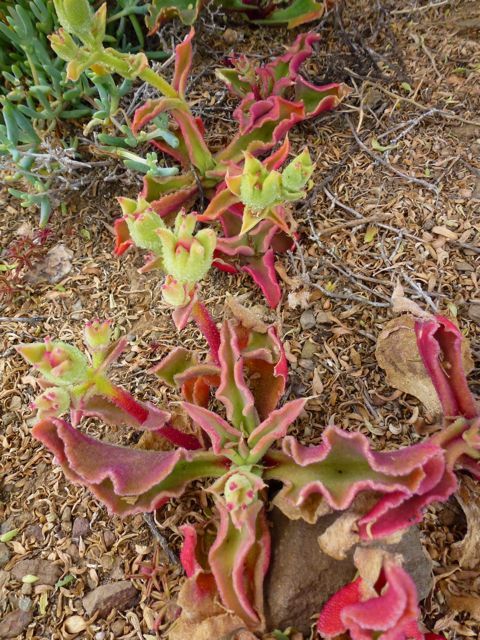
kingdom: Plantae
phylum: Tracheophyta
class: Magnoliopsida
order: Caryophyllales
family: Aizoaceae
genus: Mesembryanthemum
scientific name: Mesembryanthemum crystallinum
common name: Common iceplant
